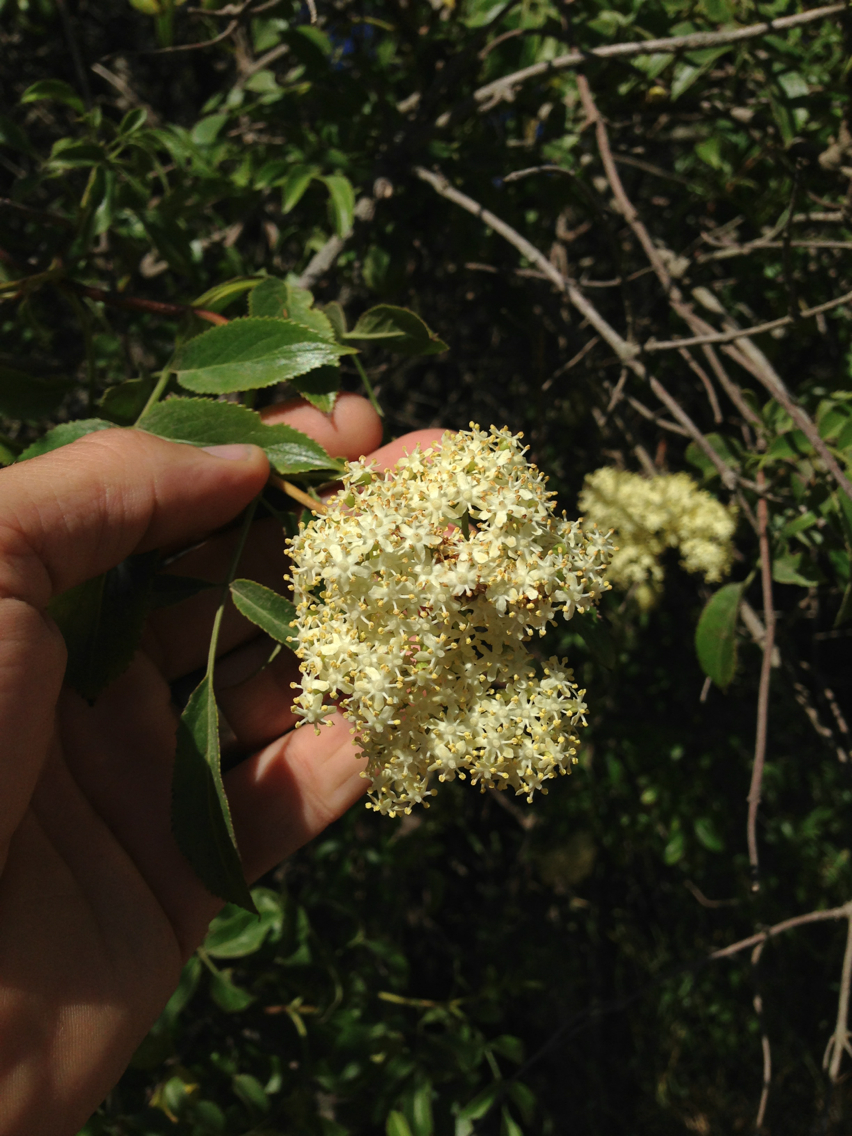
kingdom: Plantae
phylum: Tracheophyta
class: Magnoliopsida
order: Dipsacales
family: Viburnaceae
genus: Sambucus
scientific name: Sambucus cerulea
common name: Blue elder
